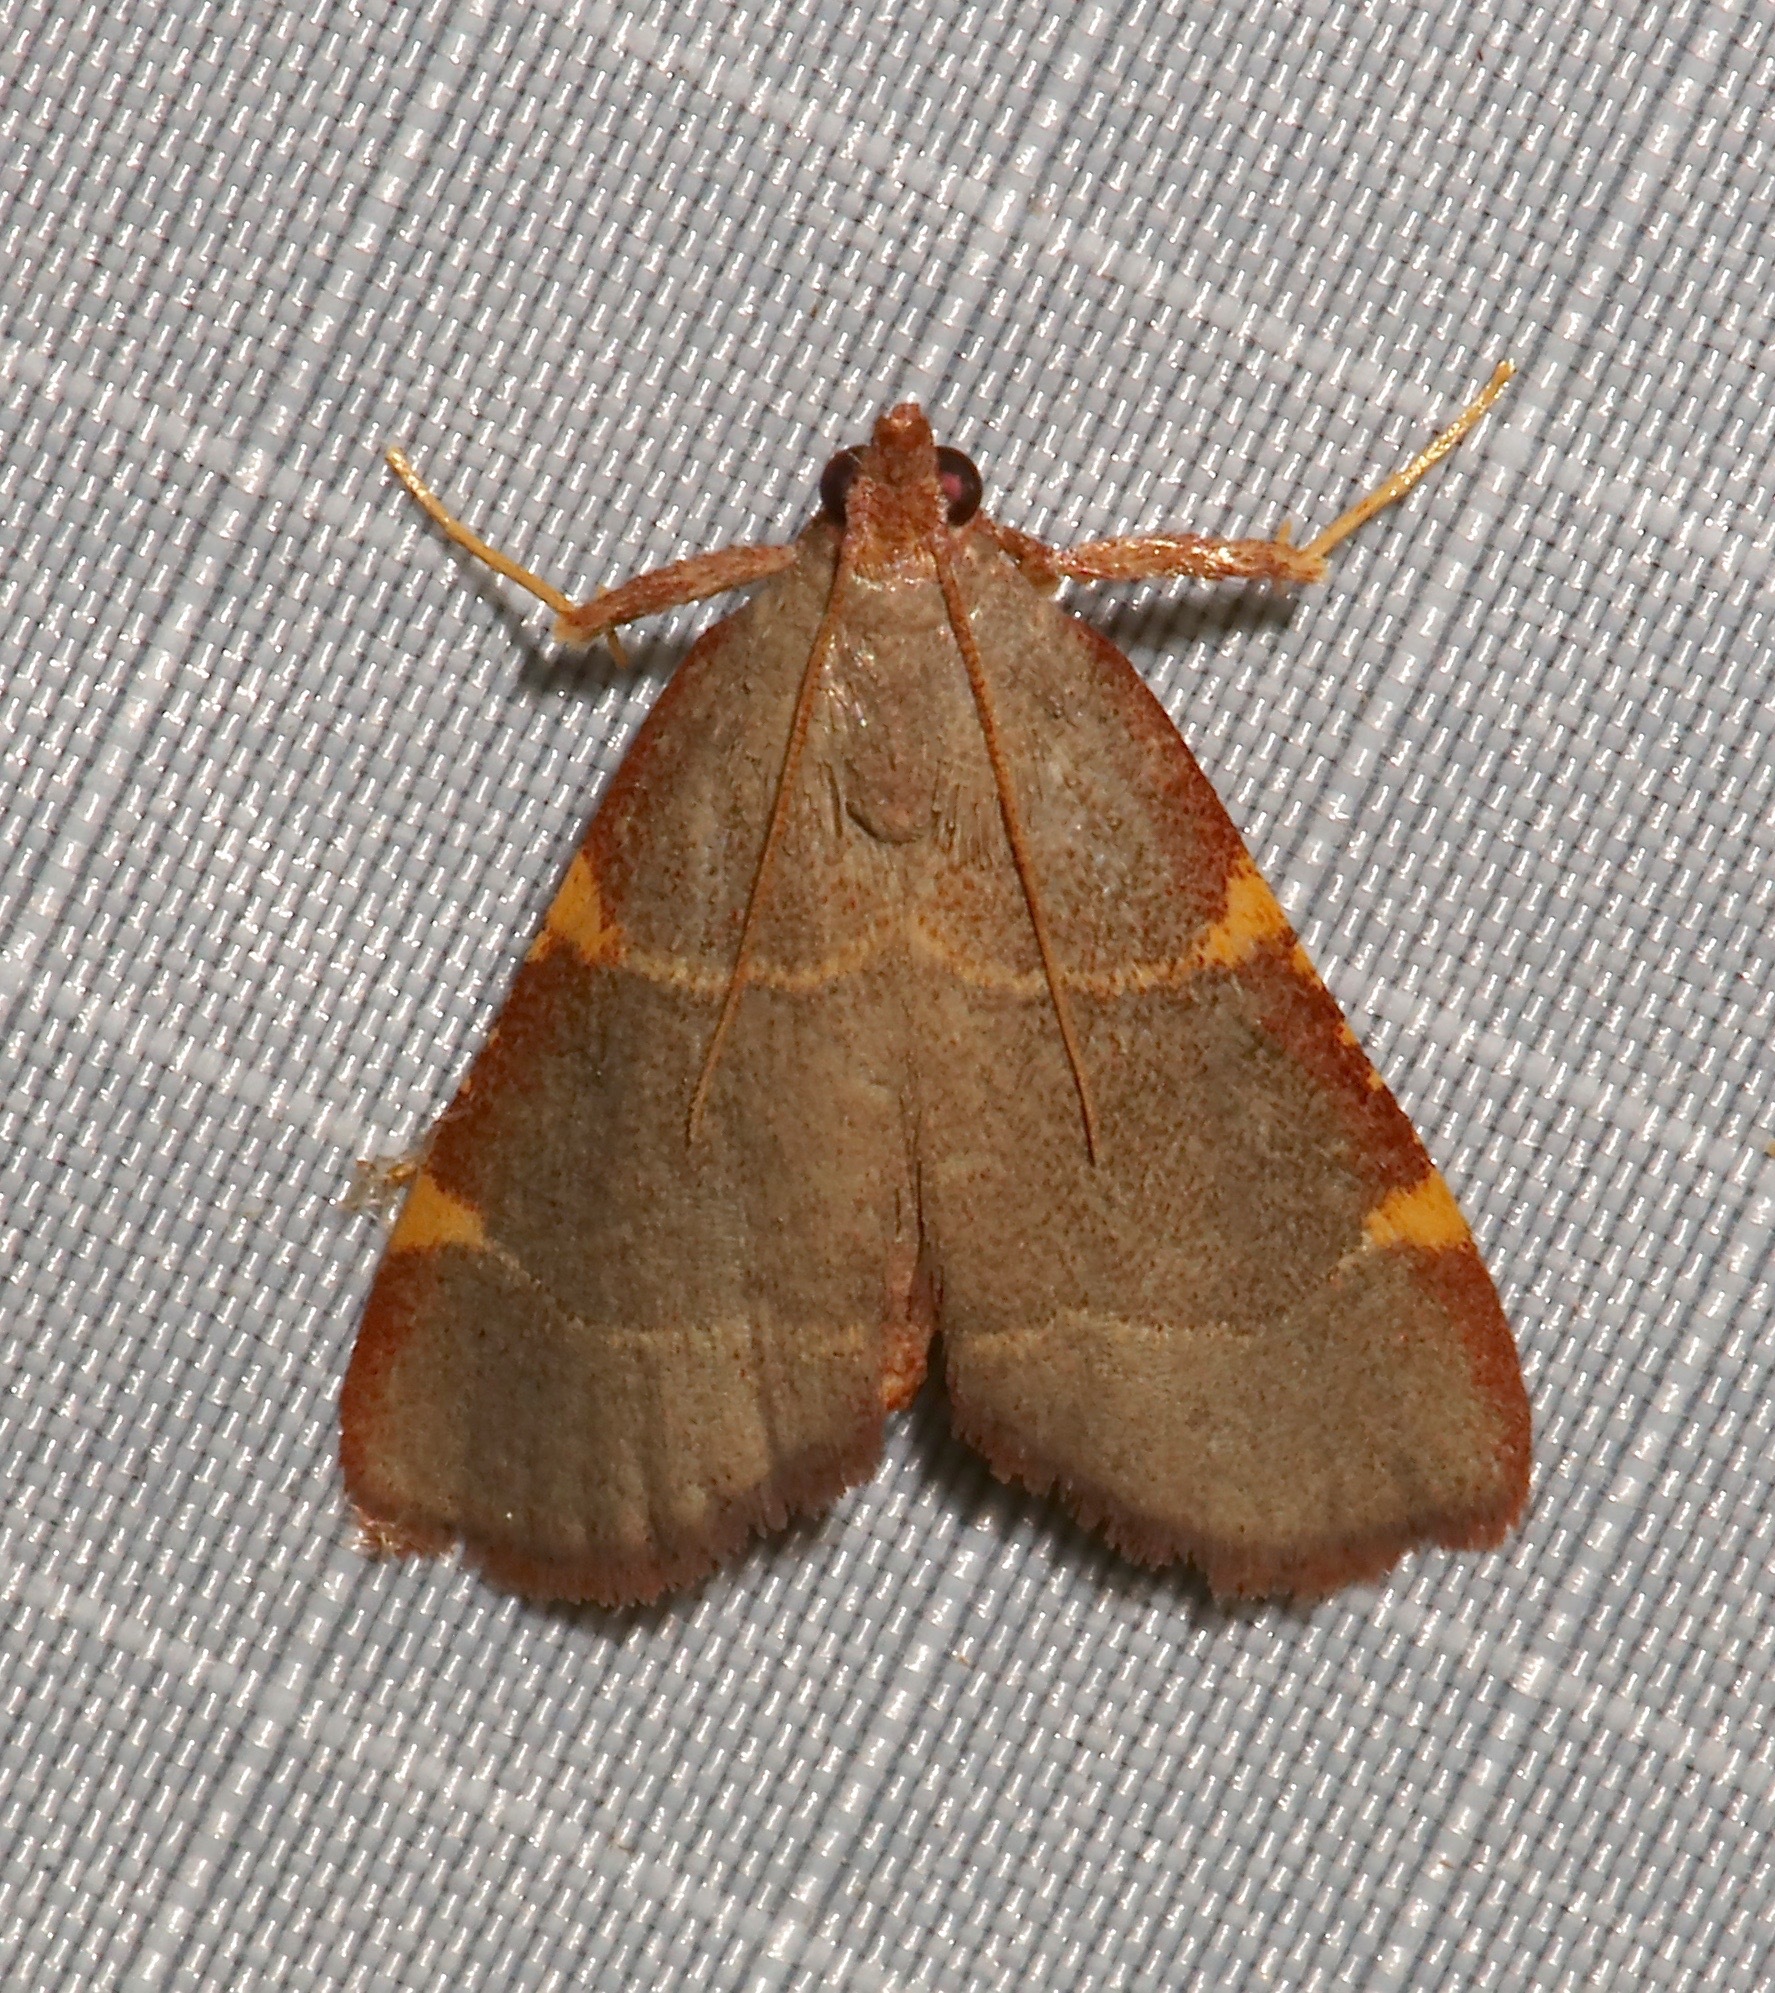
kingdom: Animalia
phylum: Arthropoda
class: Insecta
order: Lepidoptera
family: Pyralidae
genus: Hypsopygia
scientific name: Hypsopygia binodulalis
